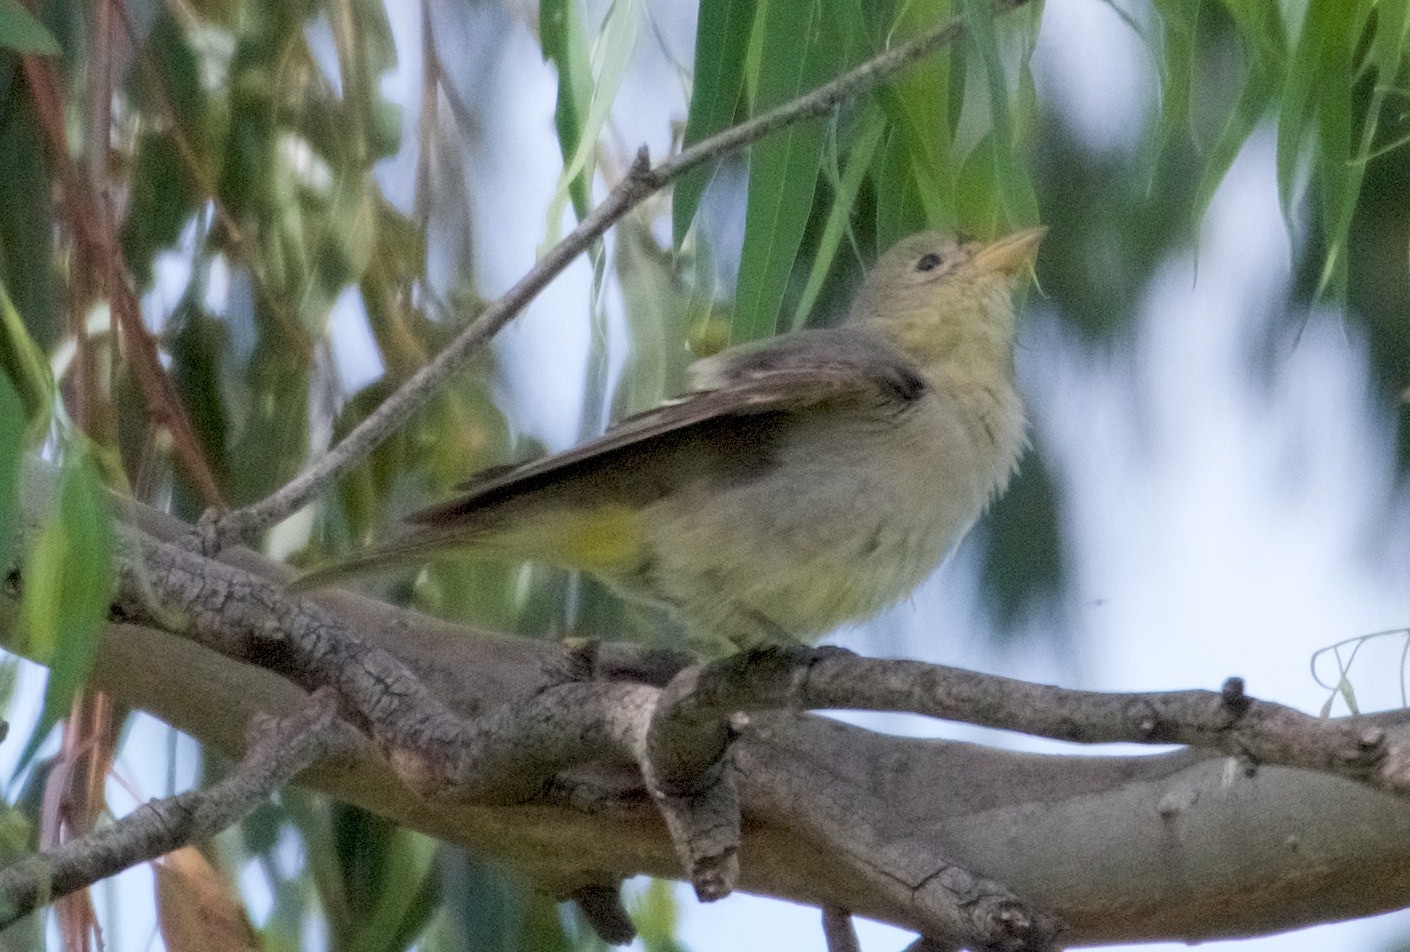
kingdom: Animalia
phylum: Chordata
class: Aves
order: Passeriformes
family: Cardinalidae
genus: Piranga
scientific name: Piranga ludoviciana
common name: Western tanager
